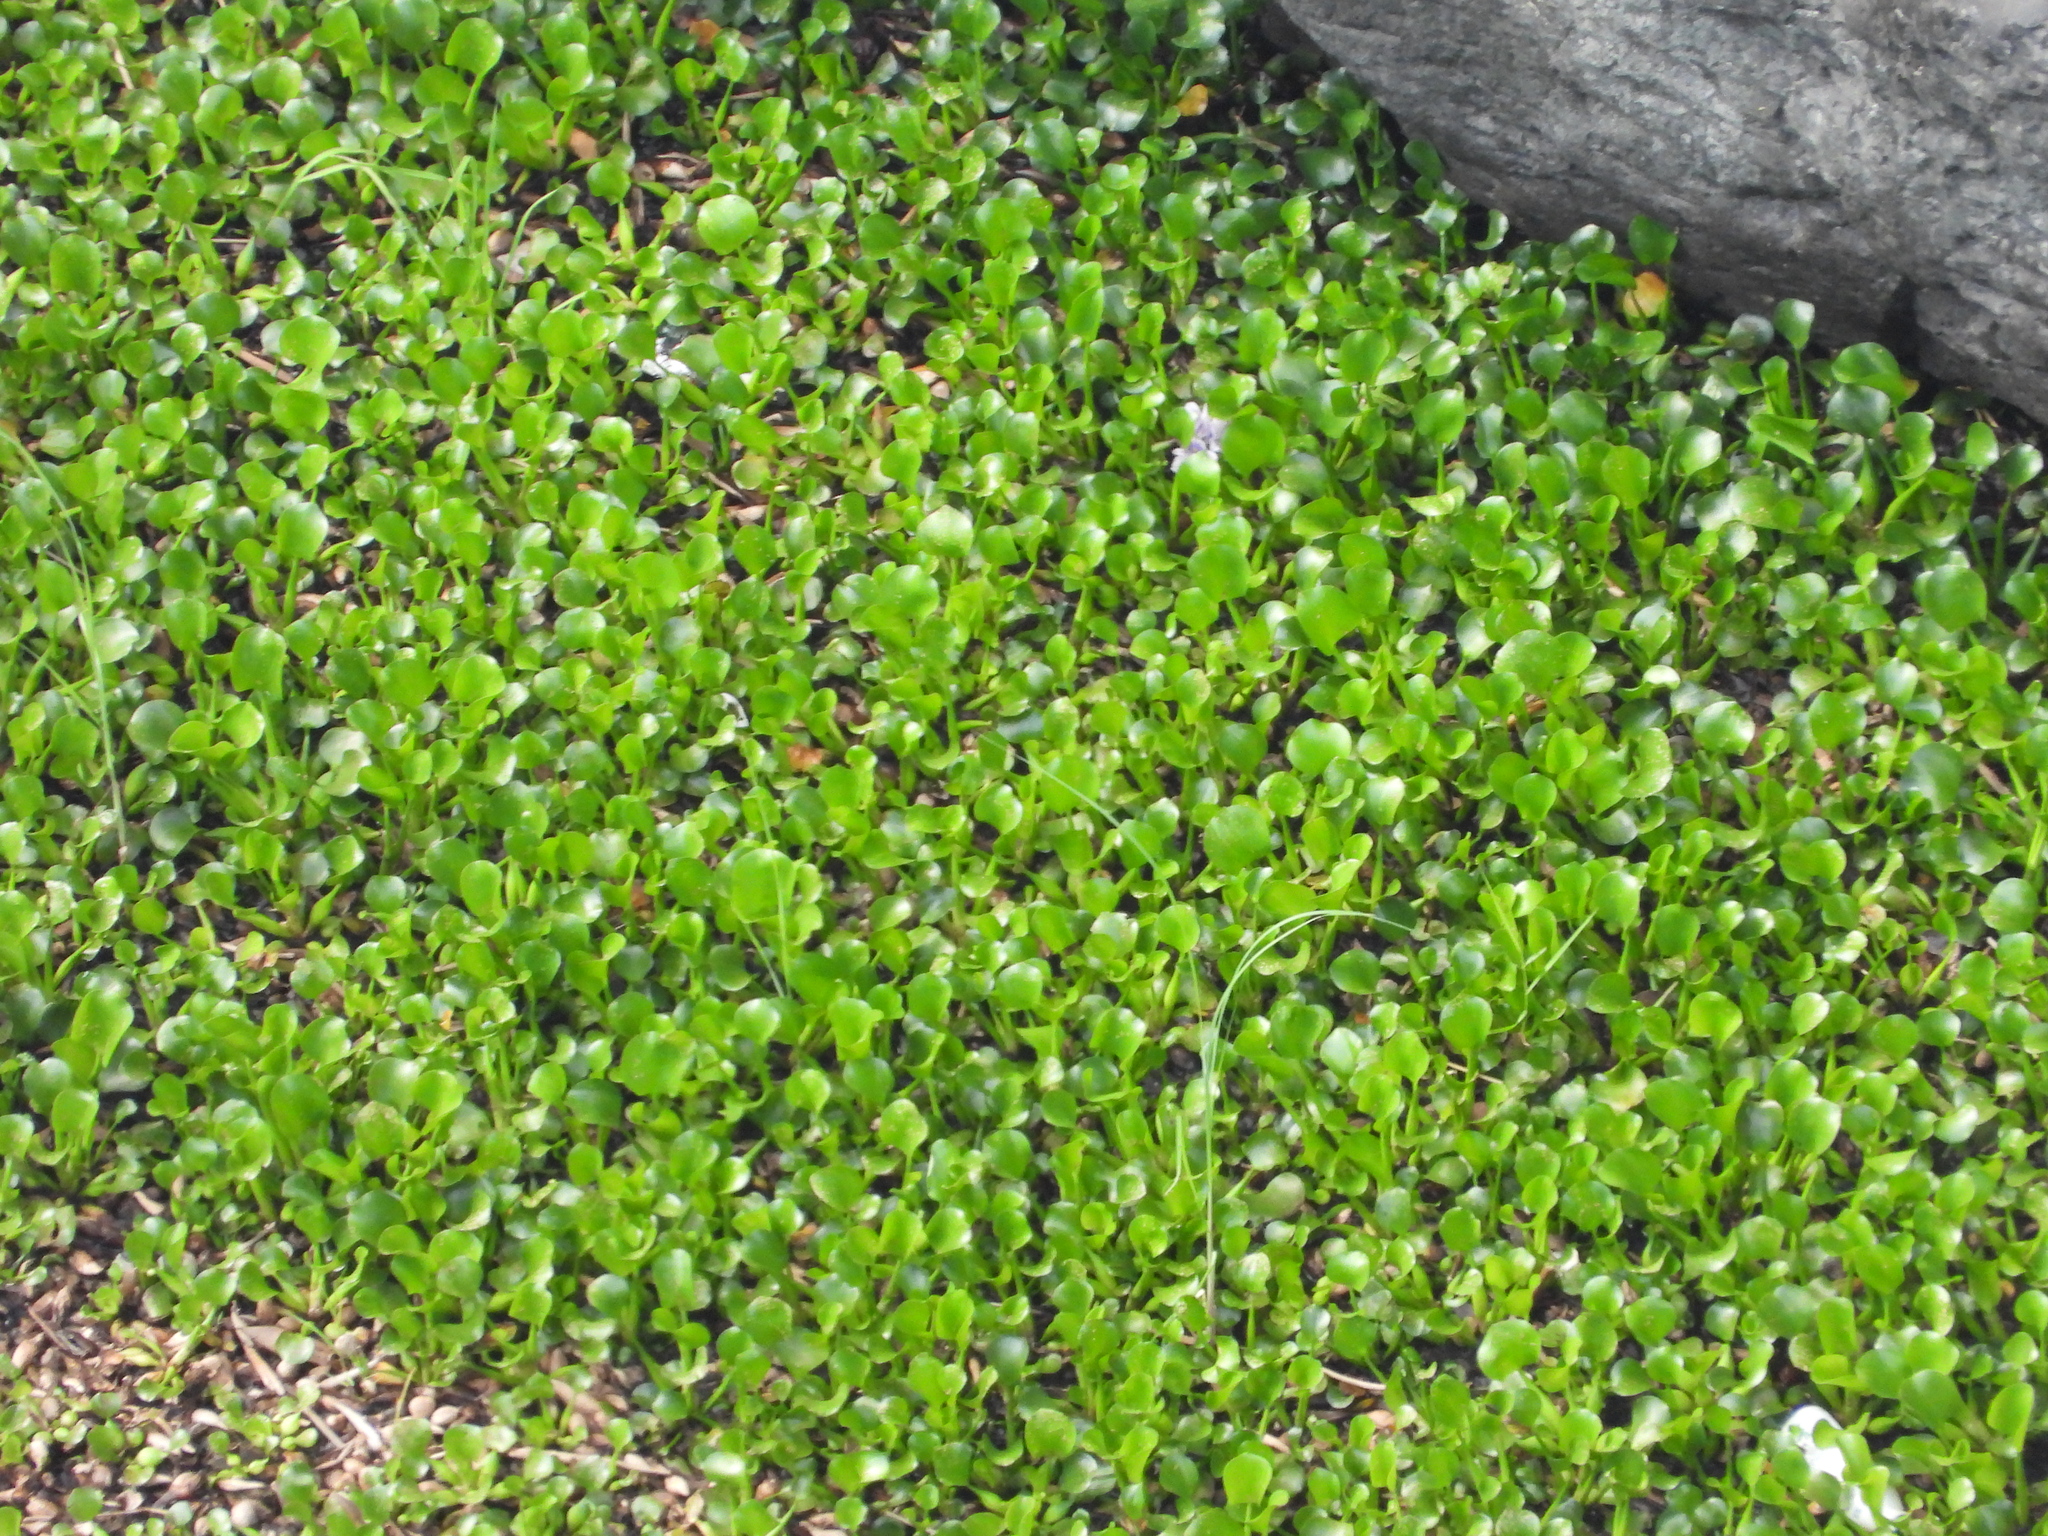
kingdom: Plantae
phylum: Tracheophyta
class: Liliopsida
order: Commelinales
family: Pontederiaceae
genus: Pontederia
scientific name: Pontederia crassipes
